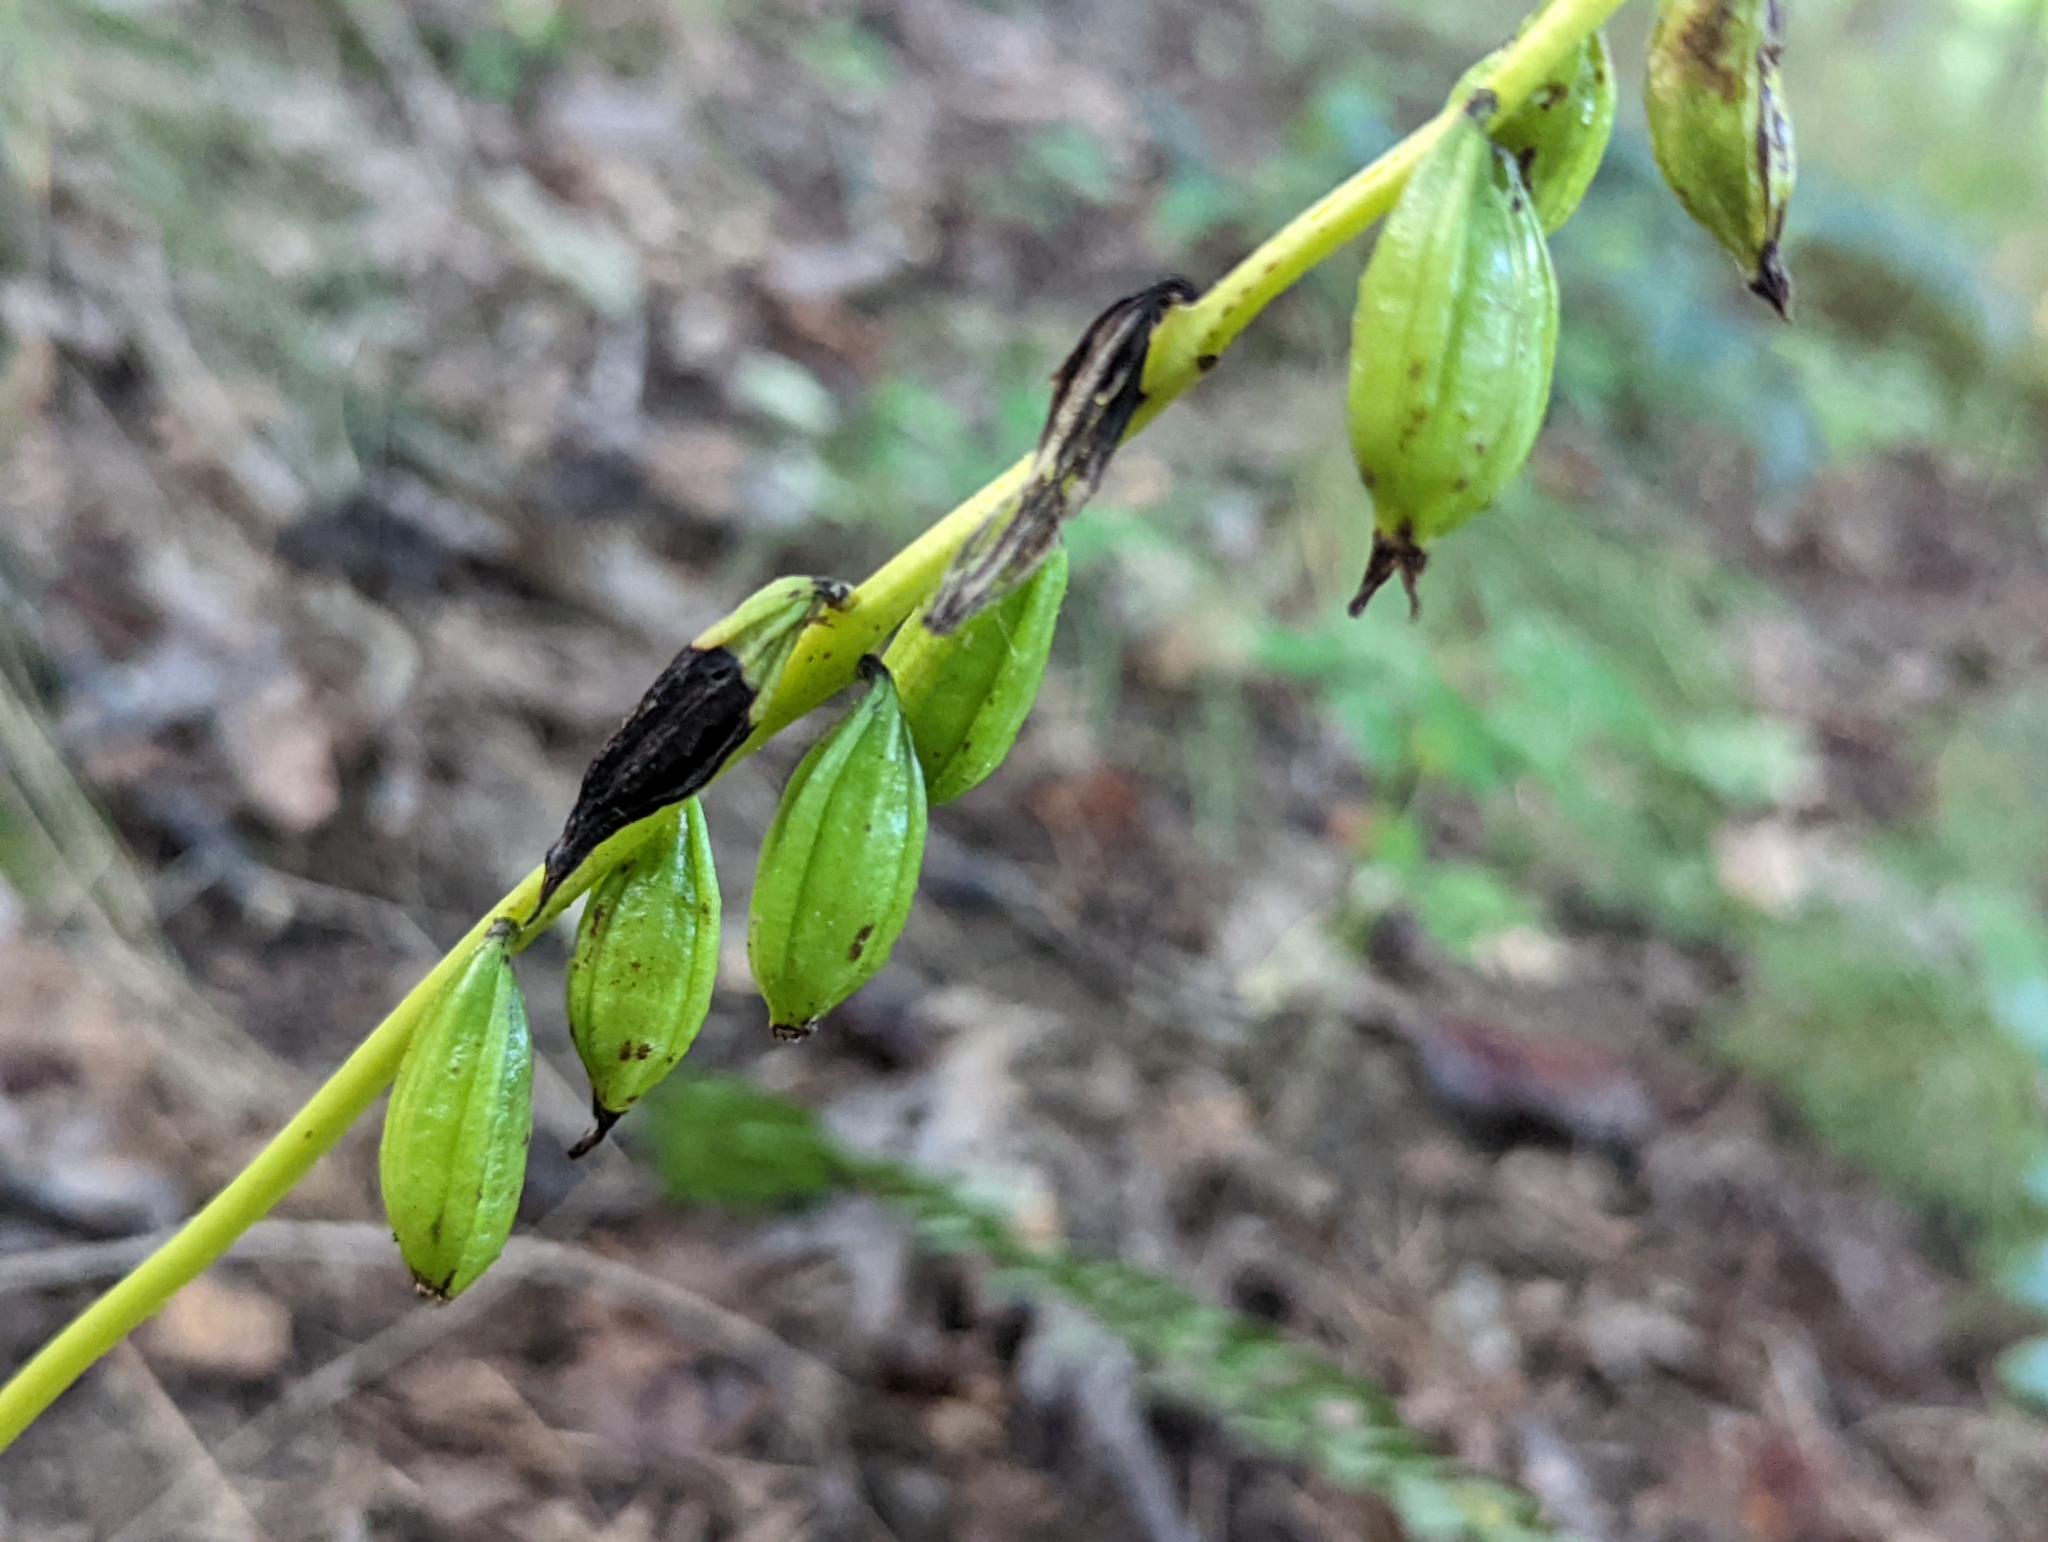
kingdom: Plantae
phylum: Tracheophyta
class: Liliopsida
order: Asparagales
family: Orchidaceae
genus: Aplectrum
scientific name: Aplectrum hyemale
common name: Adam-and-eve
